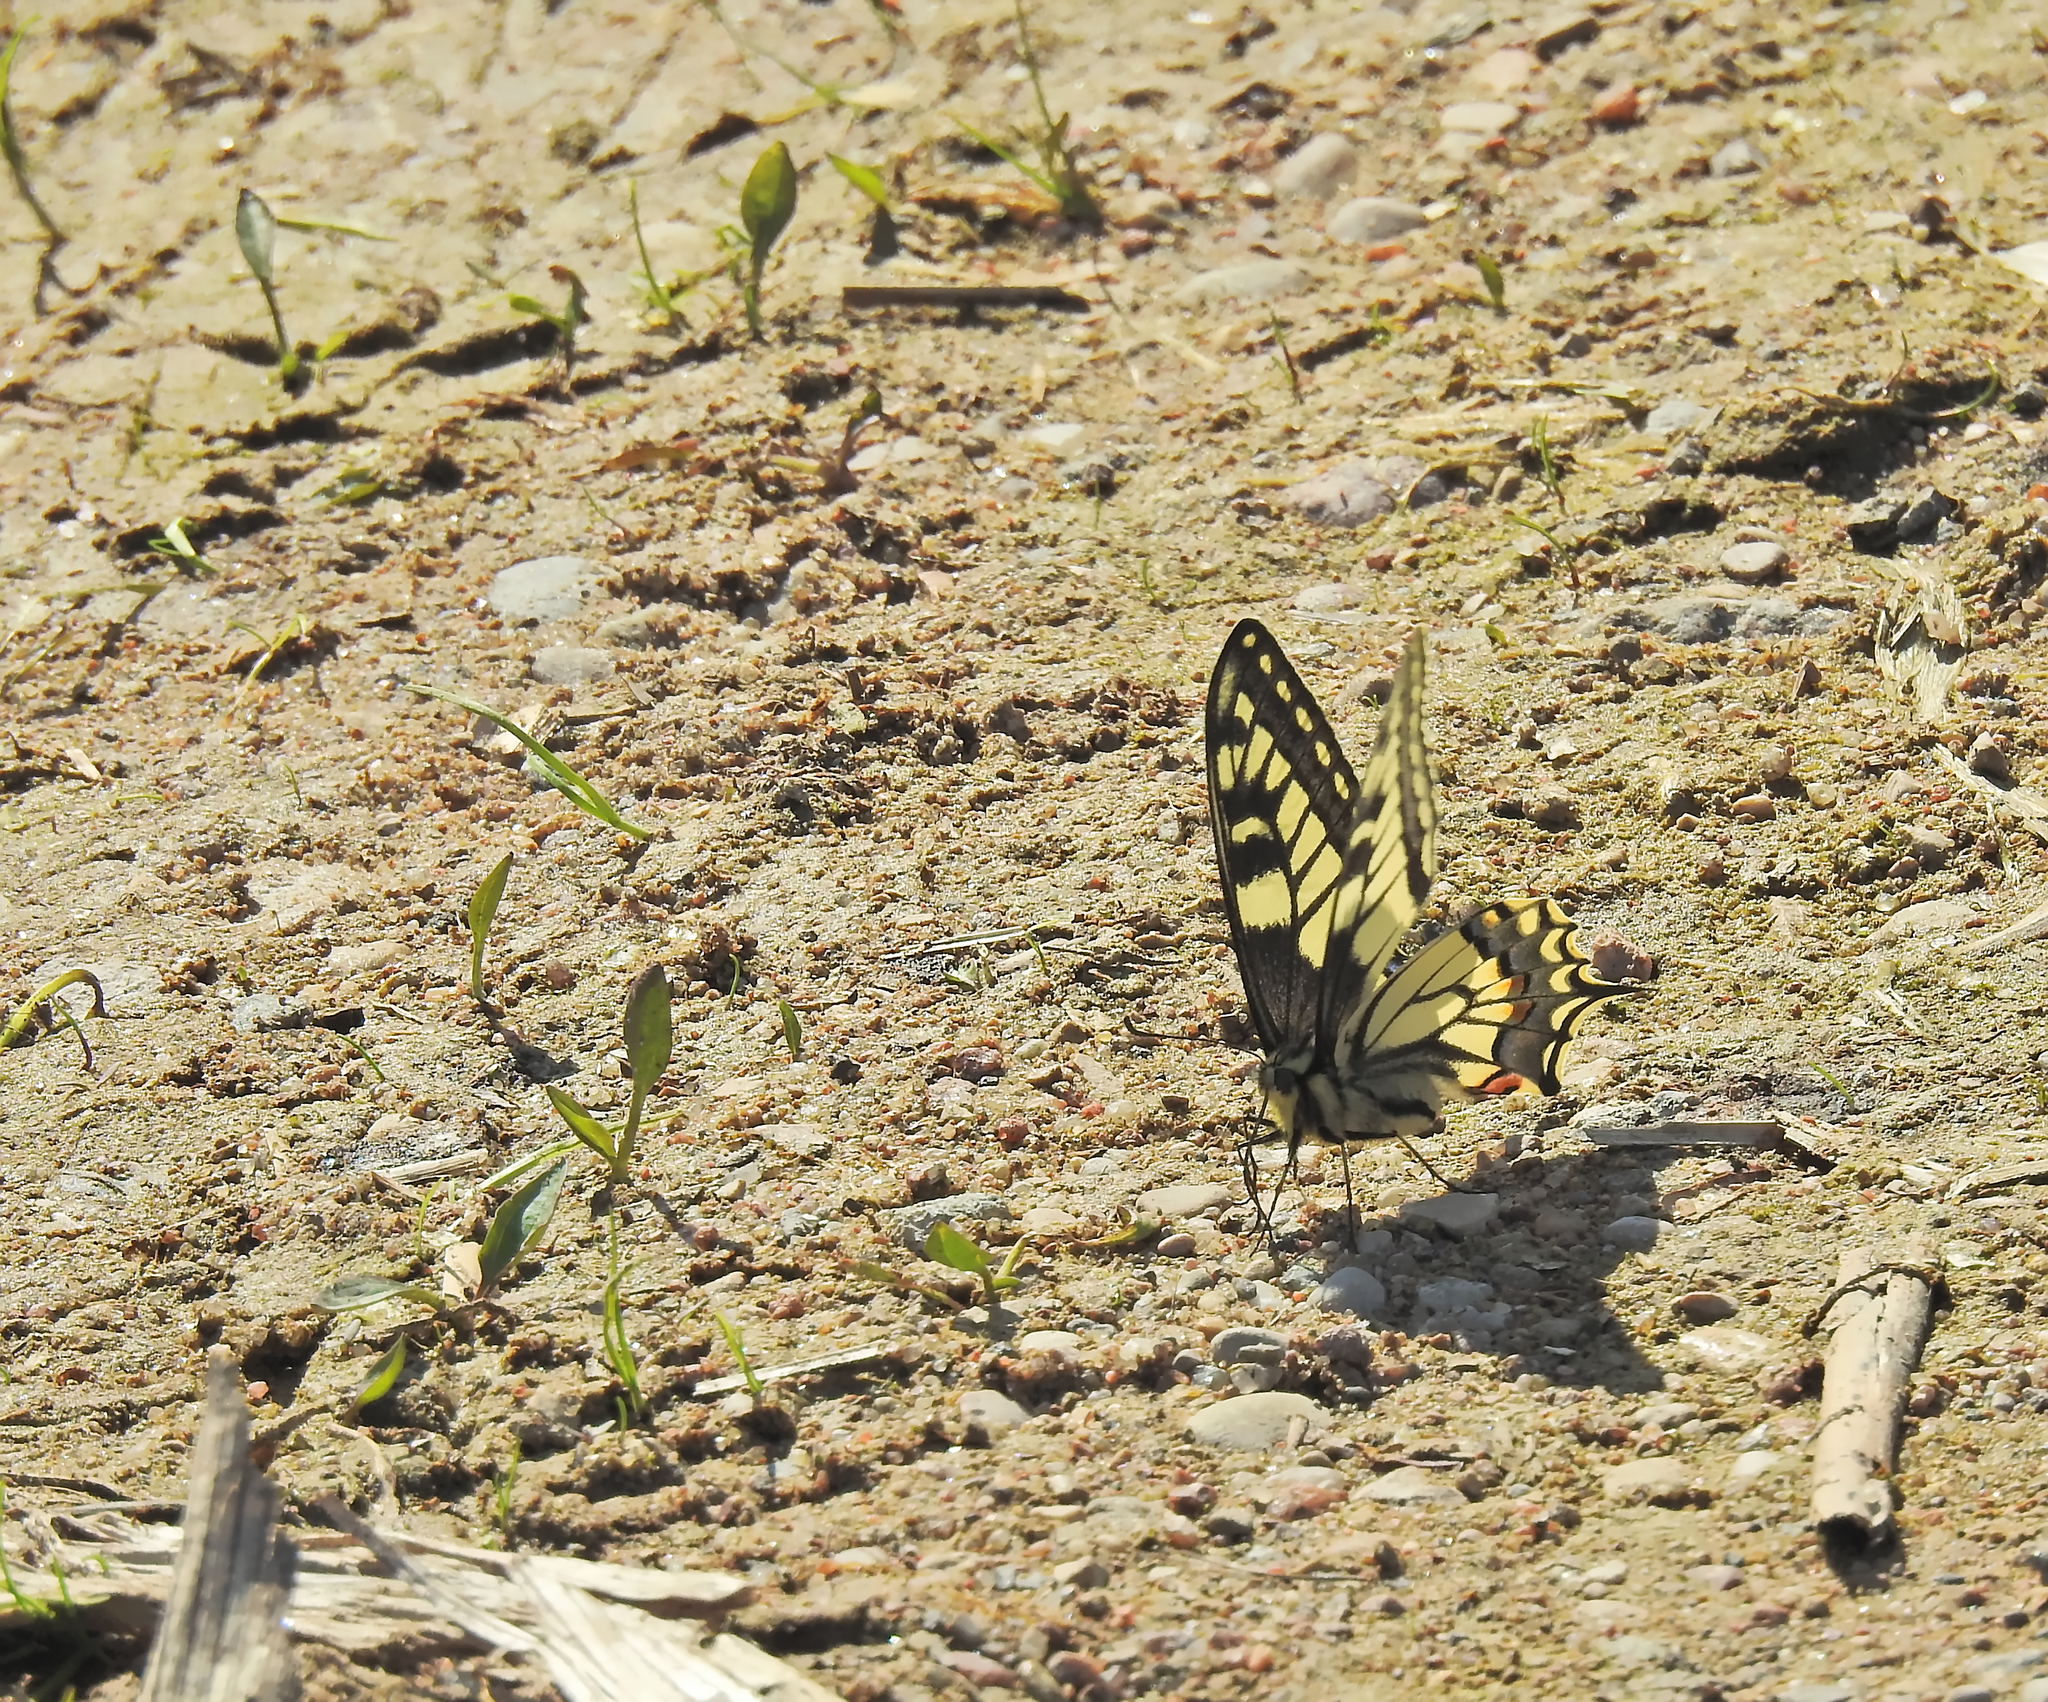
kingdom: Animalia
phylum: Arthropoda
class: Insecta
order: Lepidoptera
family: Papilionidae
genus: Papilio
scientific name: Papilio machaon
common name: Swallowtail
